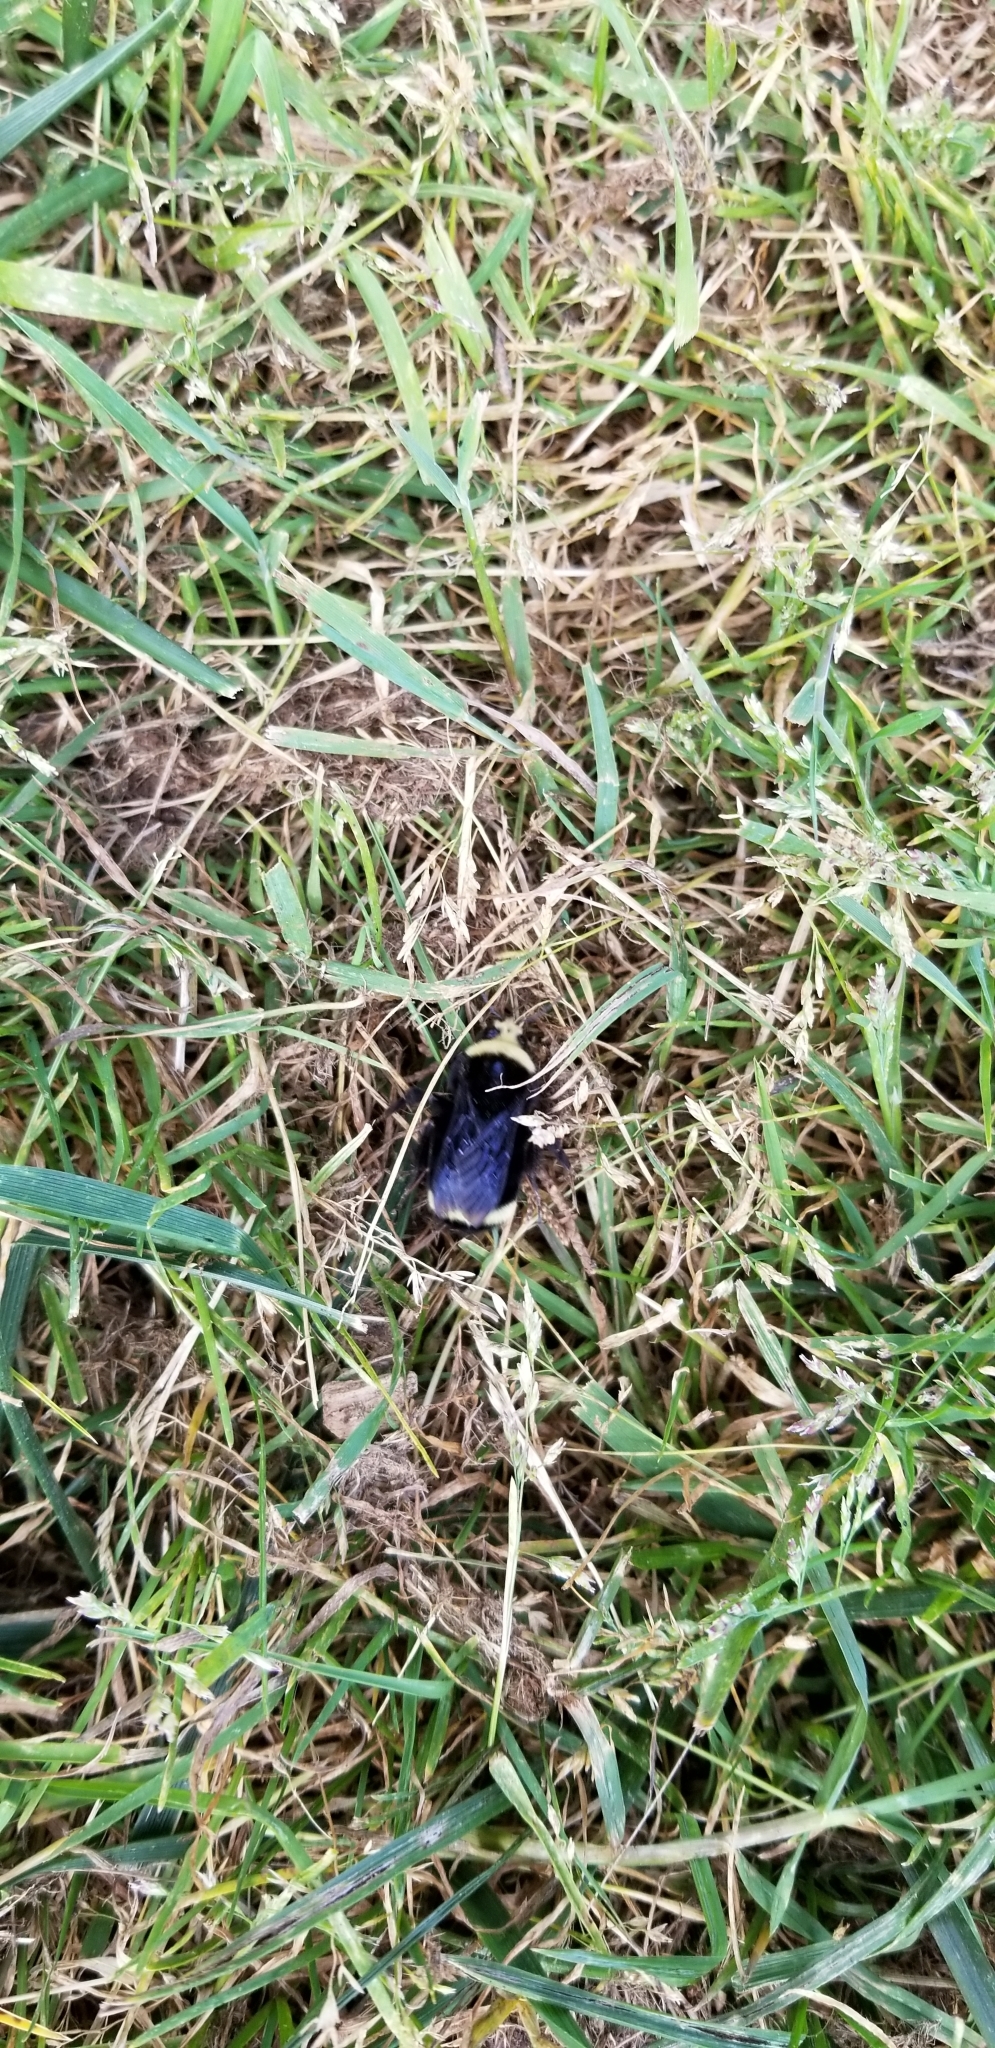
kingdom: Animalia
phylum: Arthropoda
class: Insecta
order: Hymenoptera
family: Apidae
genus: Bombus
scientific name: Bombus vosnesenskii
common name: Vosnesensky bumble bee
